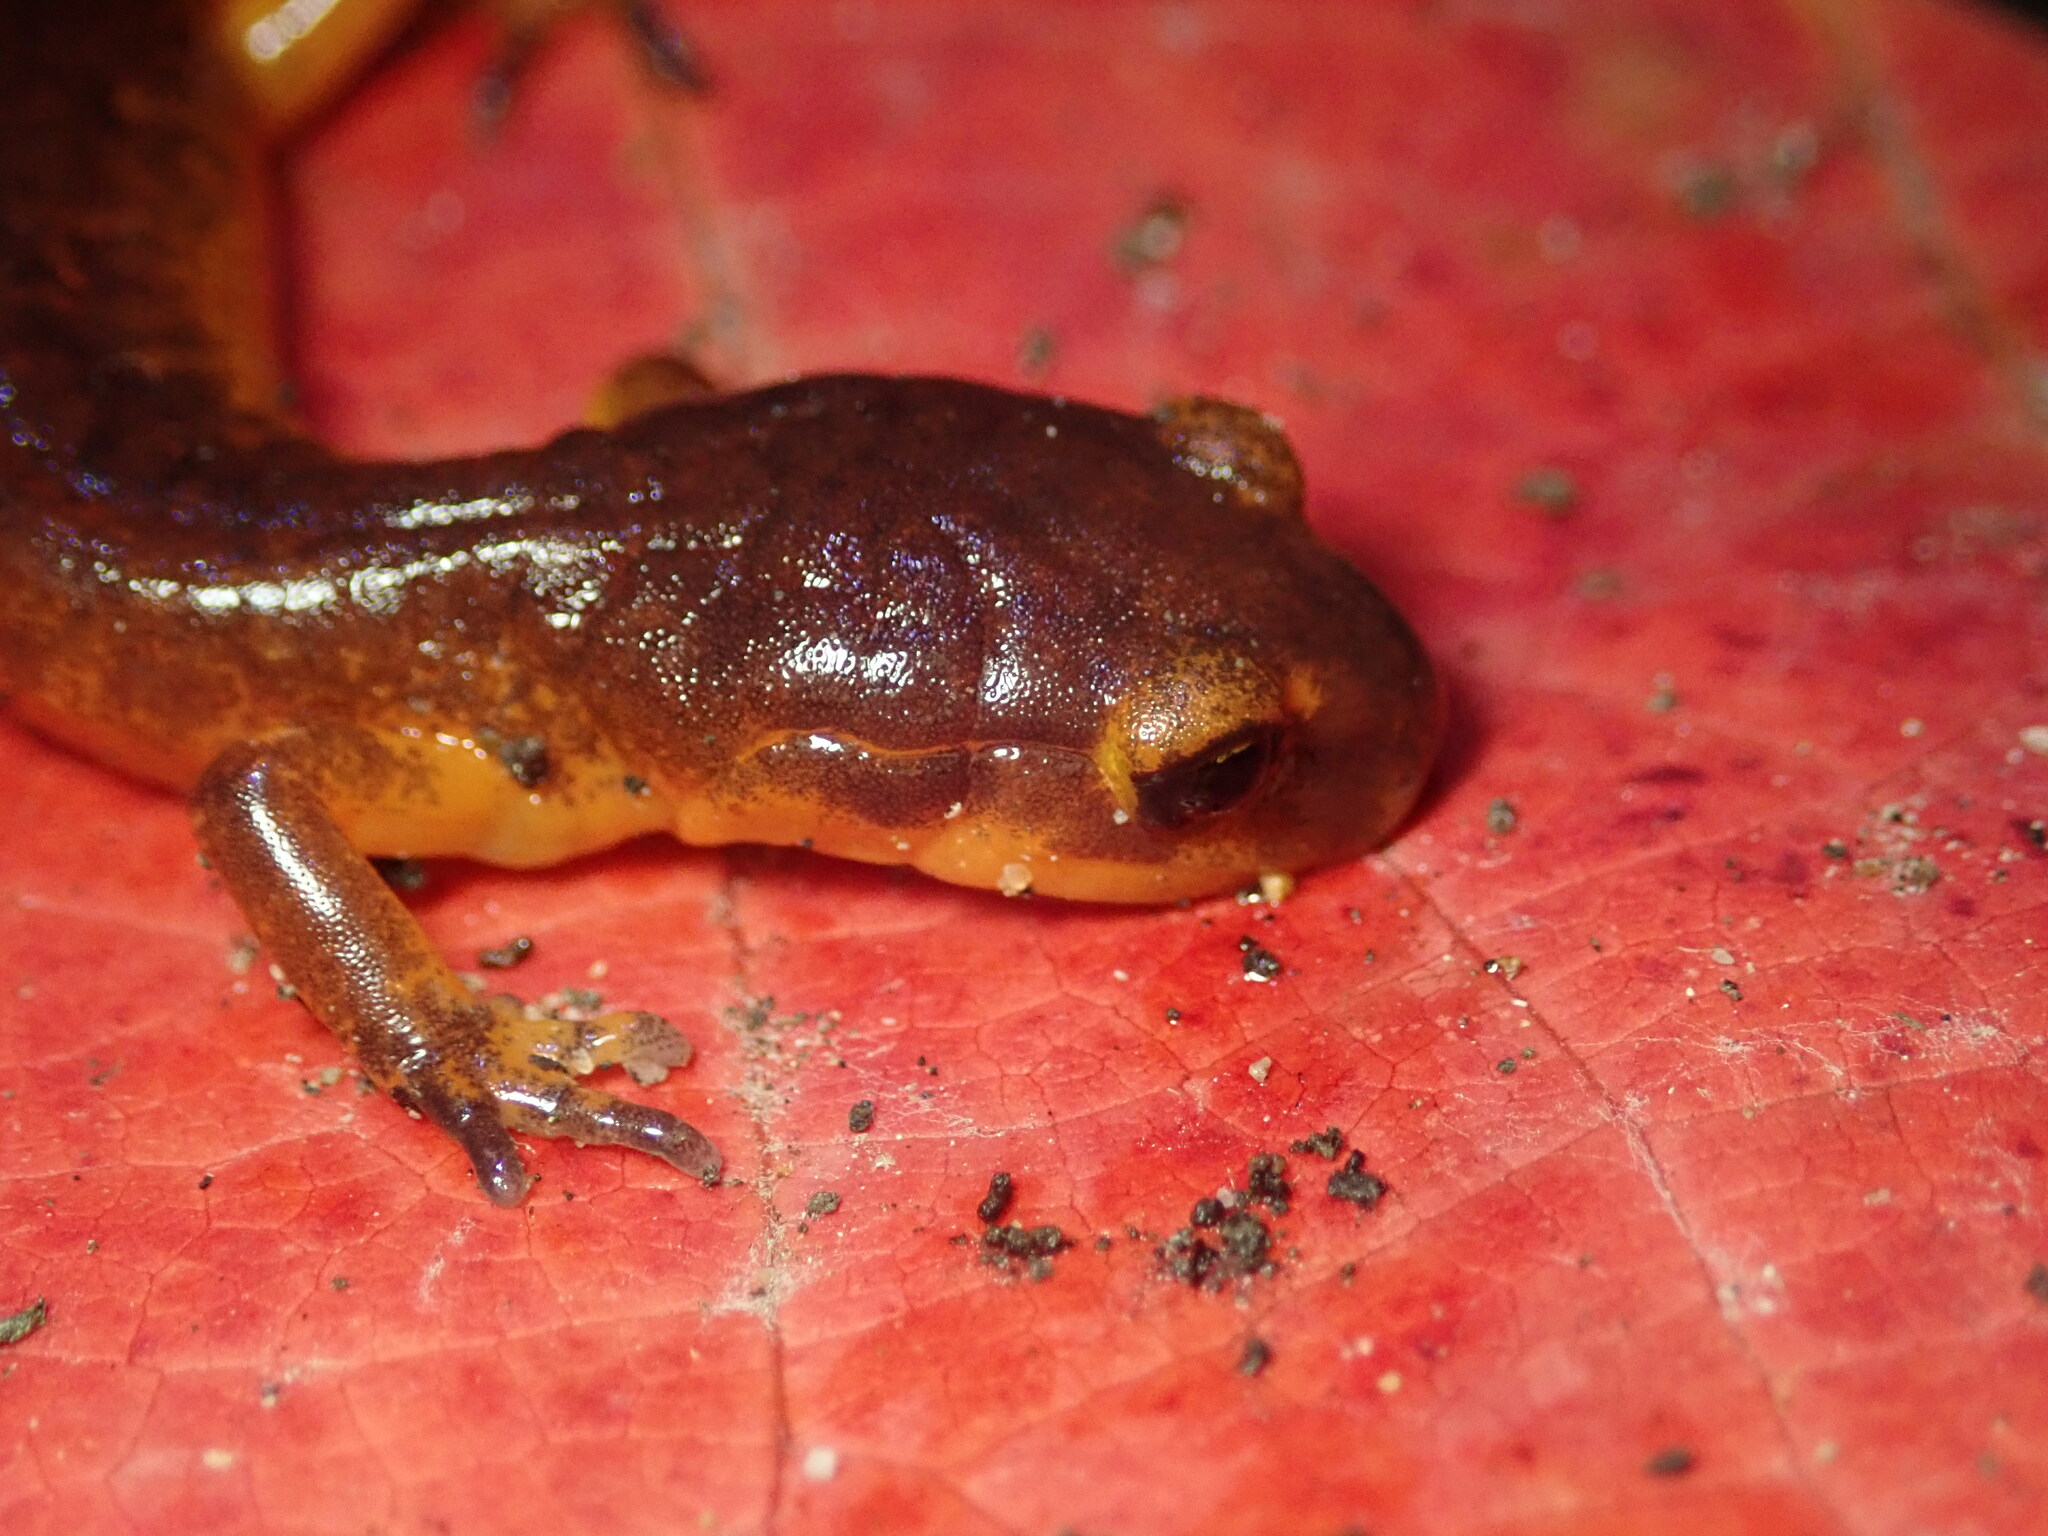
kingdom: Animalia
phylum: Chordata
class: Amphibia
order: Caudata
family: Plethodontidae
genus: Ensatina
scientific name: Ensatina eschscholtzii
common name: Ensatina
